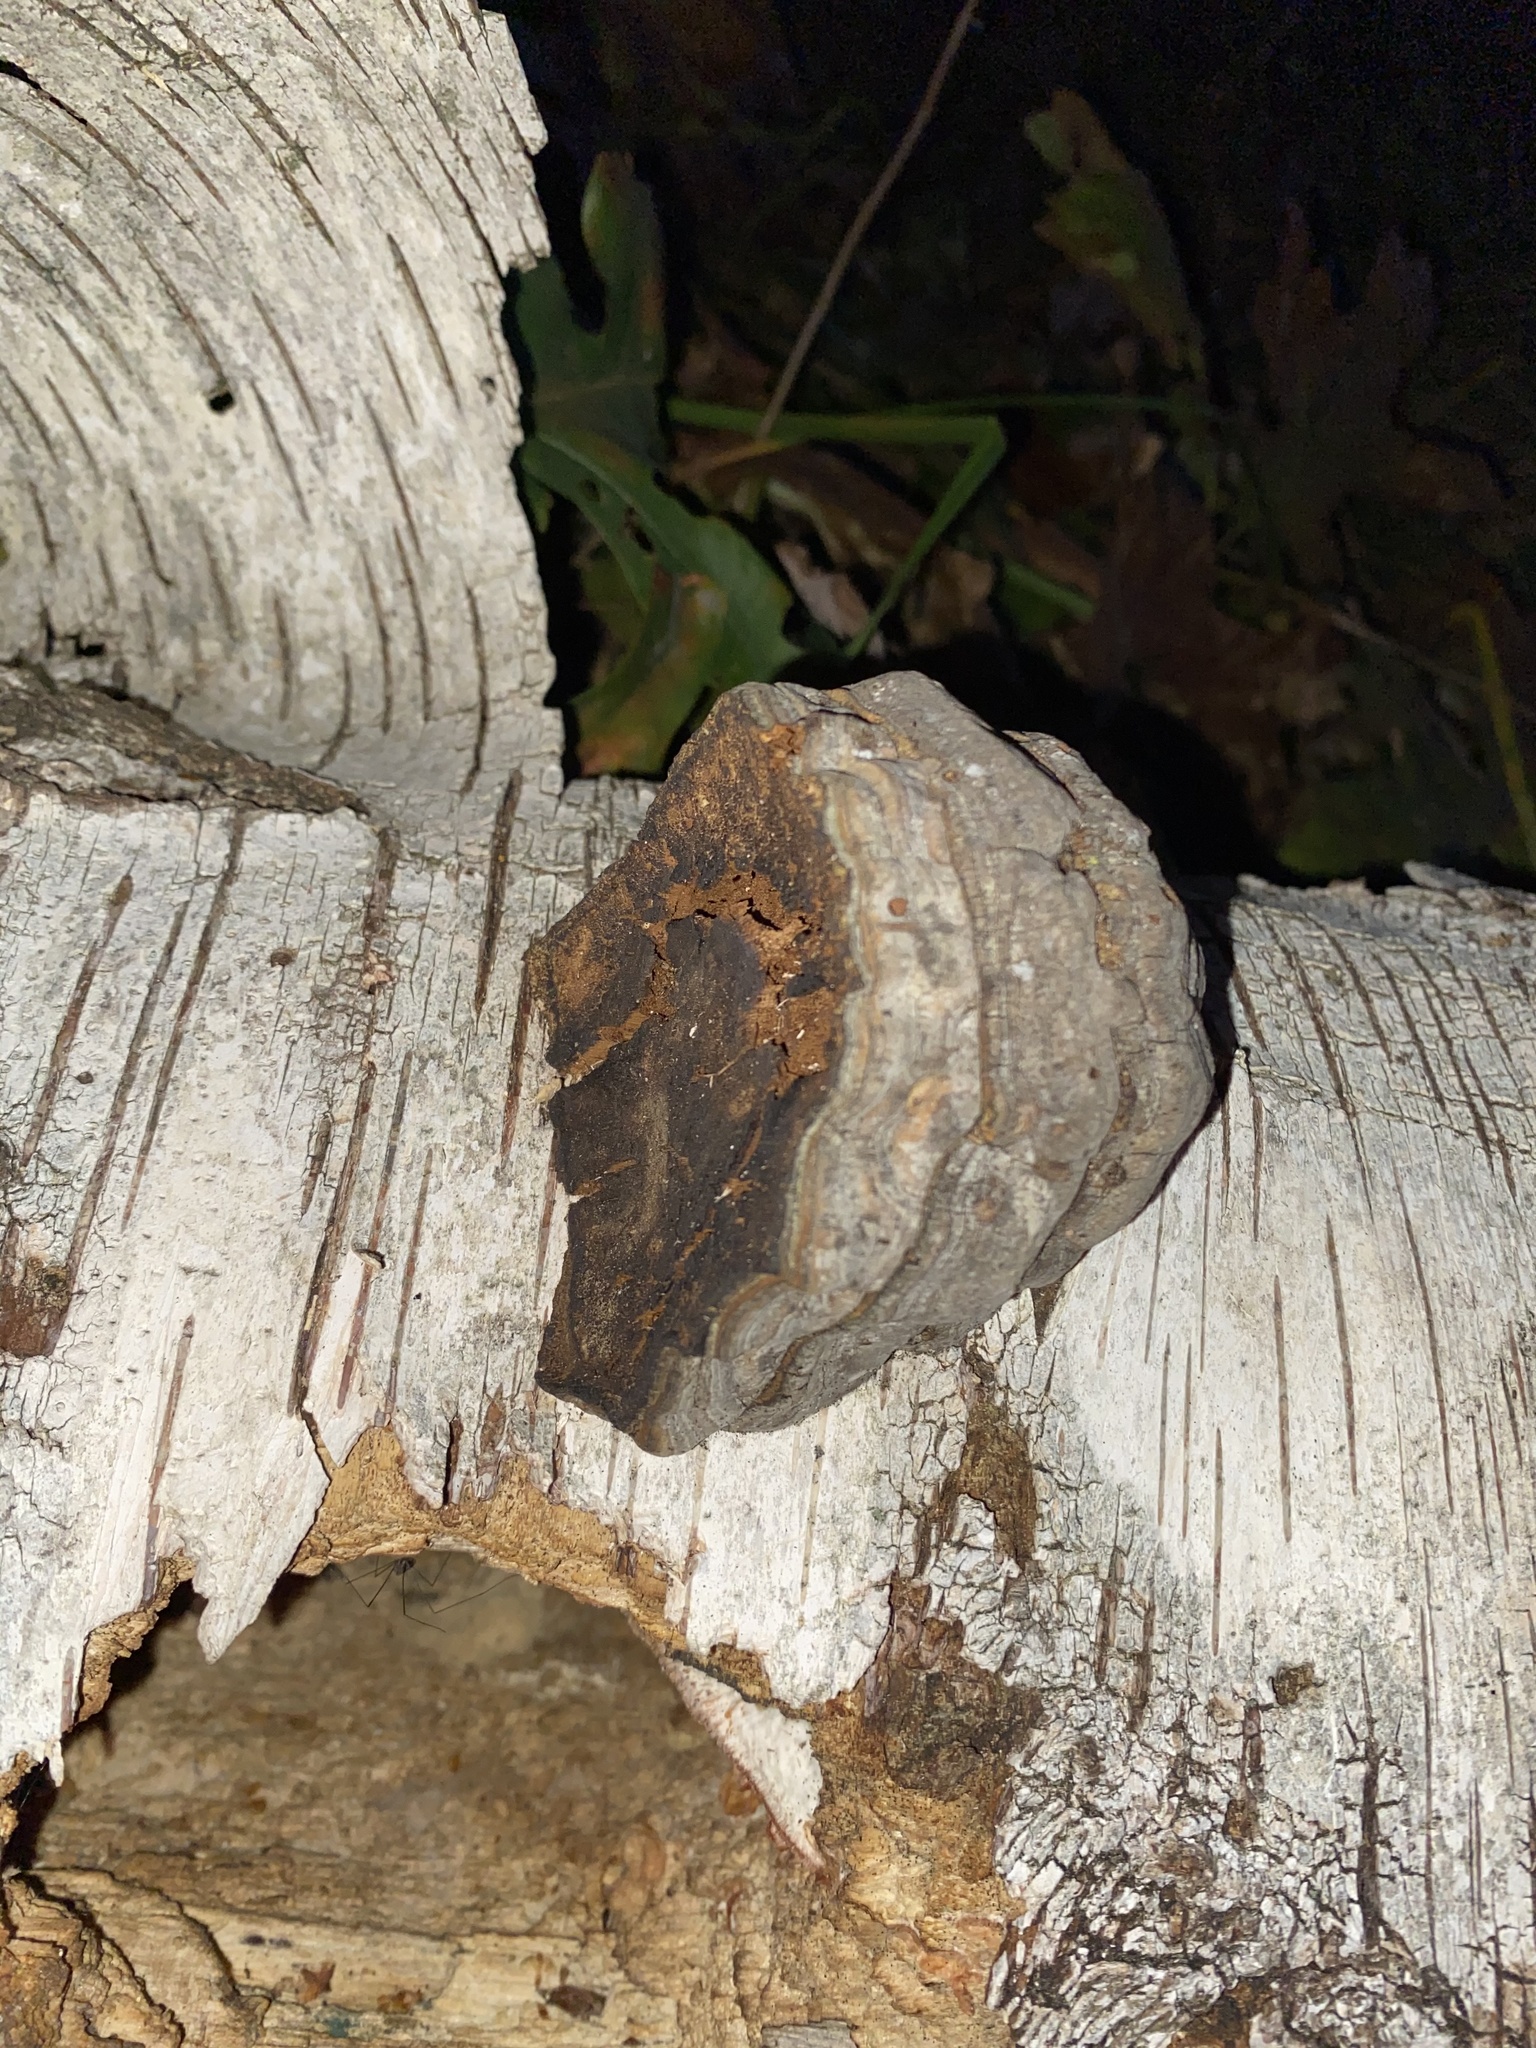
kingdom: Fungi
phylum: Basidiomycota
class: Agaricomycetes
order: Polyporales
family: Polyporaceae
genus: Fomes
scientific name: Fomes fomentarius
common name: Hoof fungus
